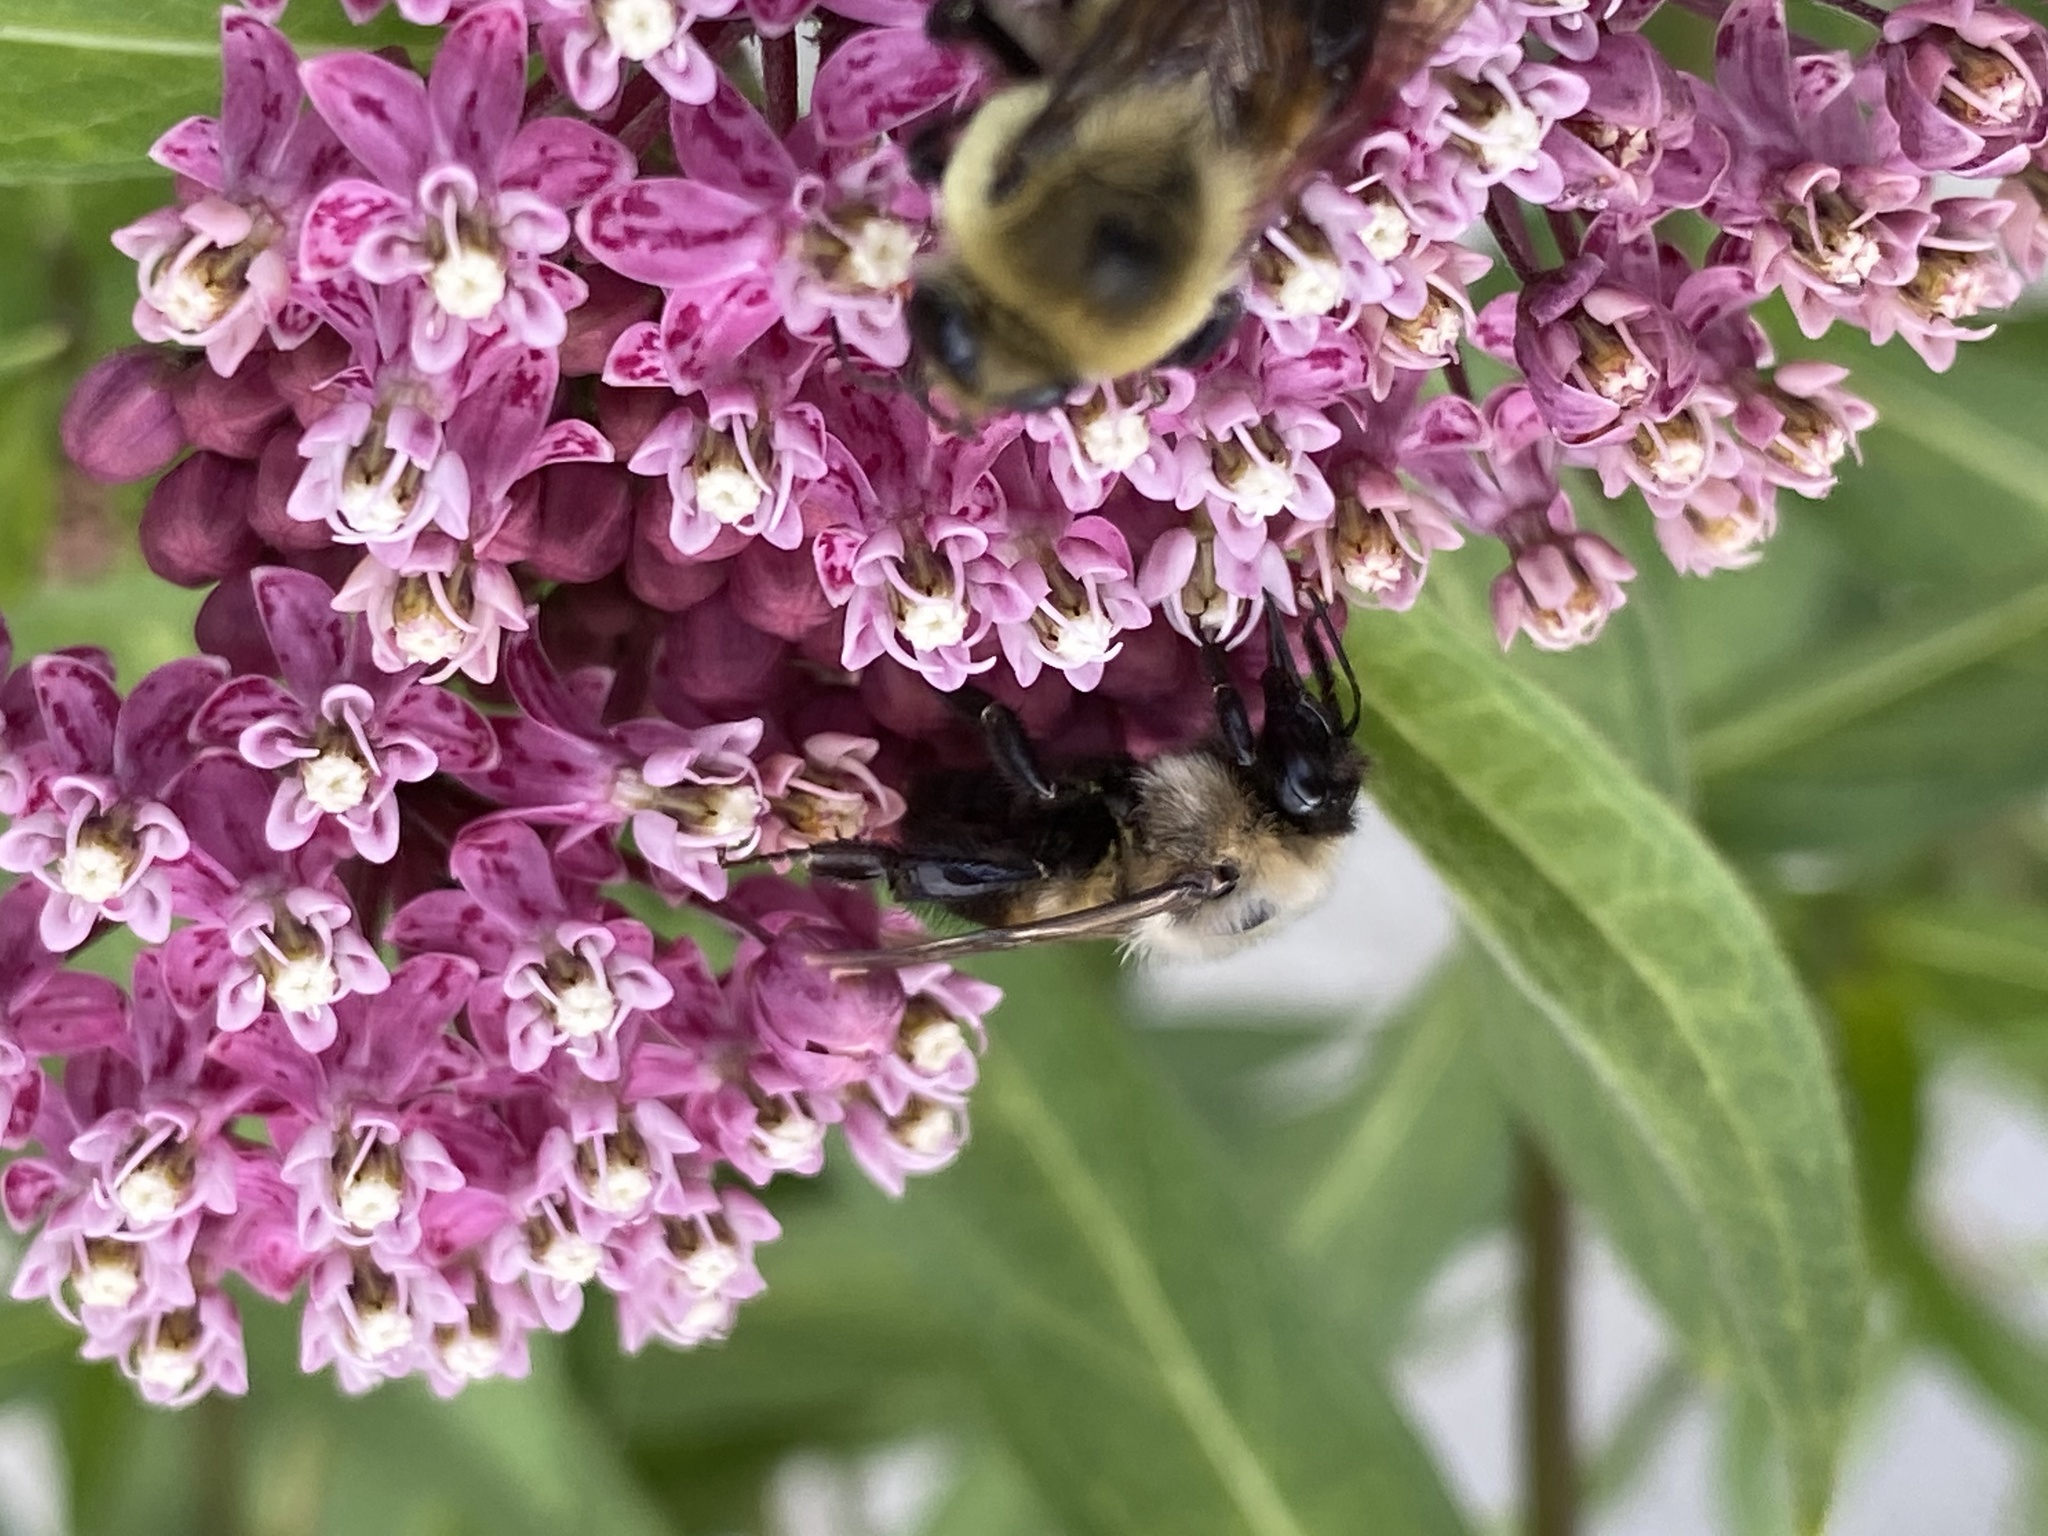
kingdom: Animalia
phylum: Arthropoda
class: Insecta
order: Hymenoptera
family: Apidae
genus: Bombus
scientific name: Bombus griseocollis
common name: Brown-belted bumble bee
